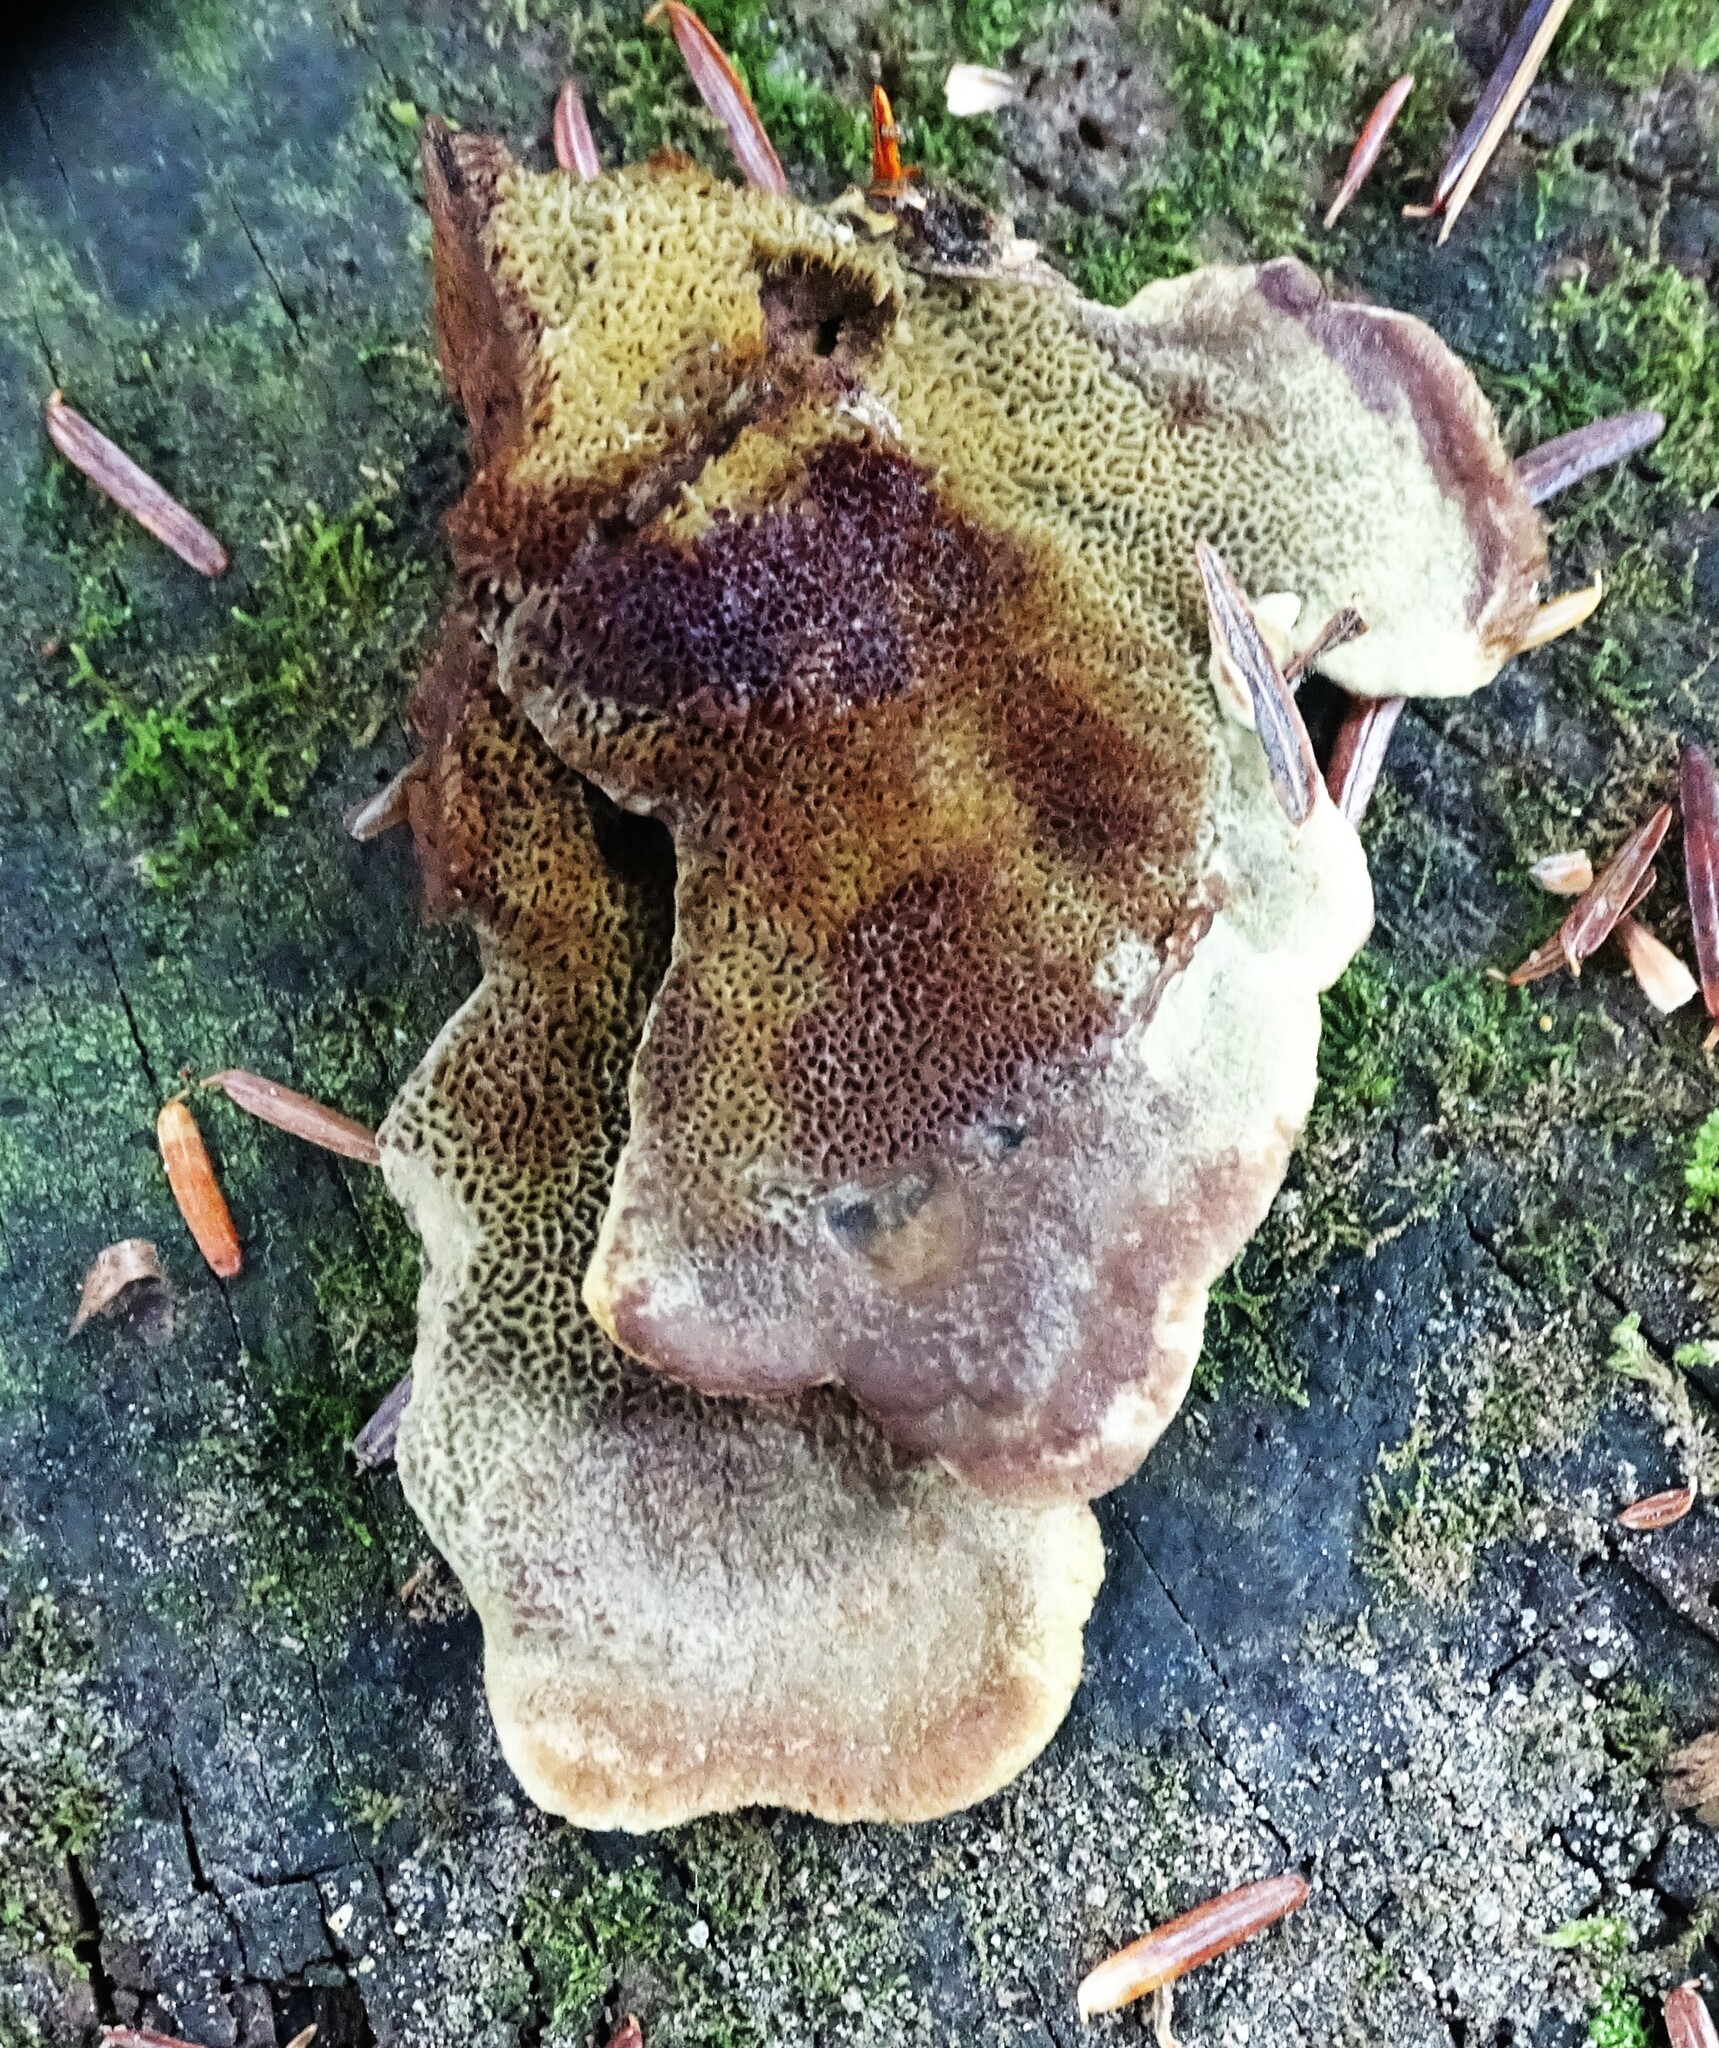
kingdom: Fungi
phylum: Basidiomycota
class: Agaricomycetes
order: Polyporales
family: Laetiporaceae
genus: Phaeolus
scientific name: Phaeolus schweinitzii
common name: Dyer's mazegill
